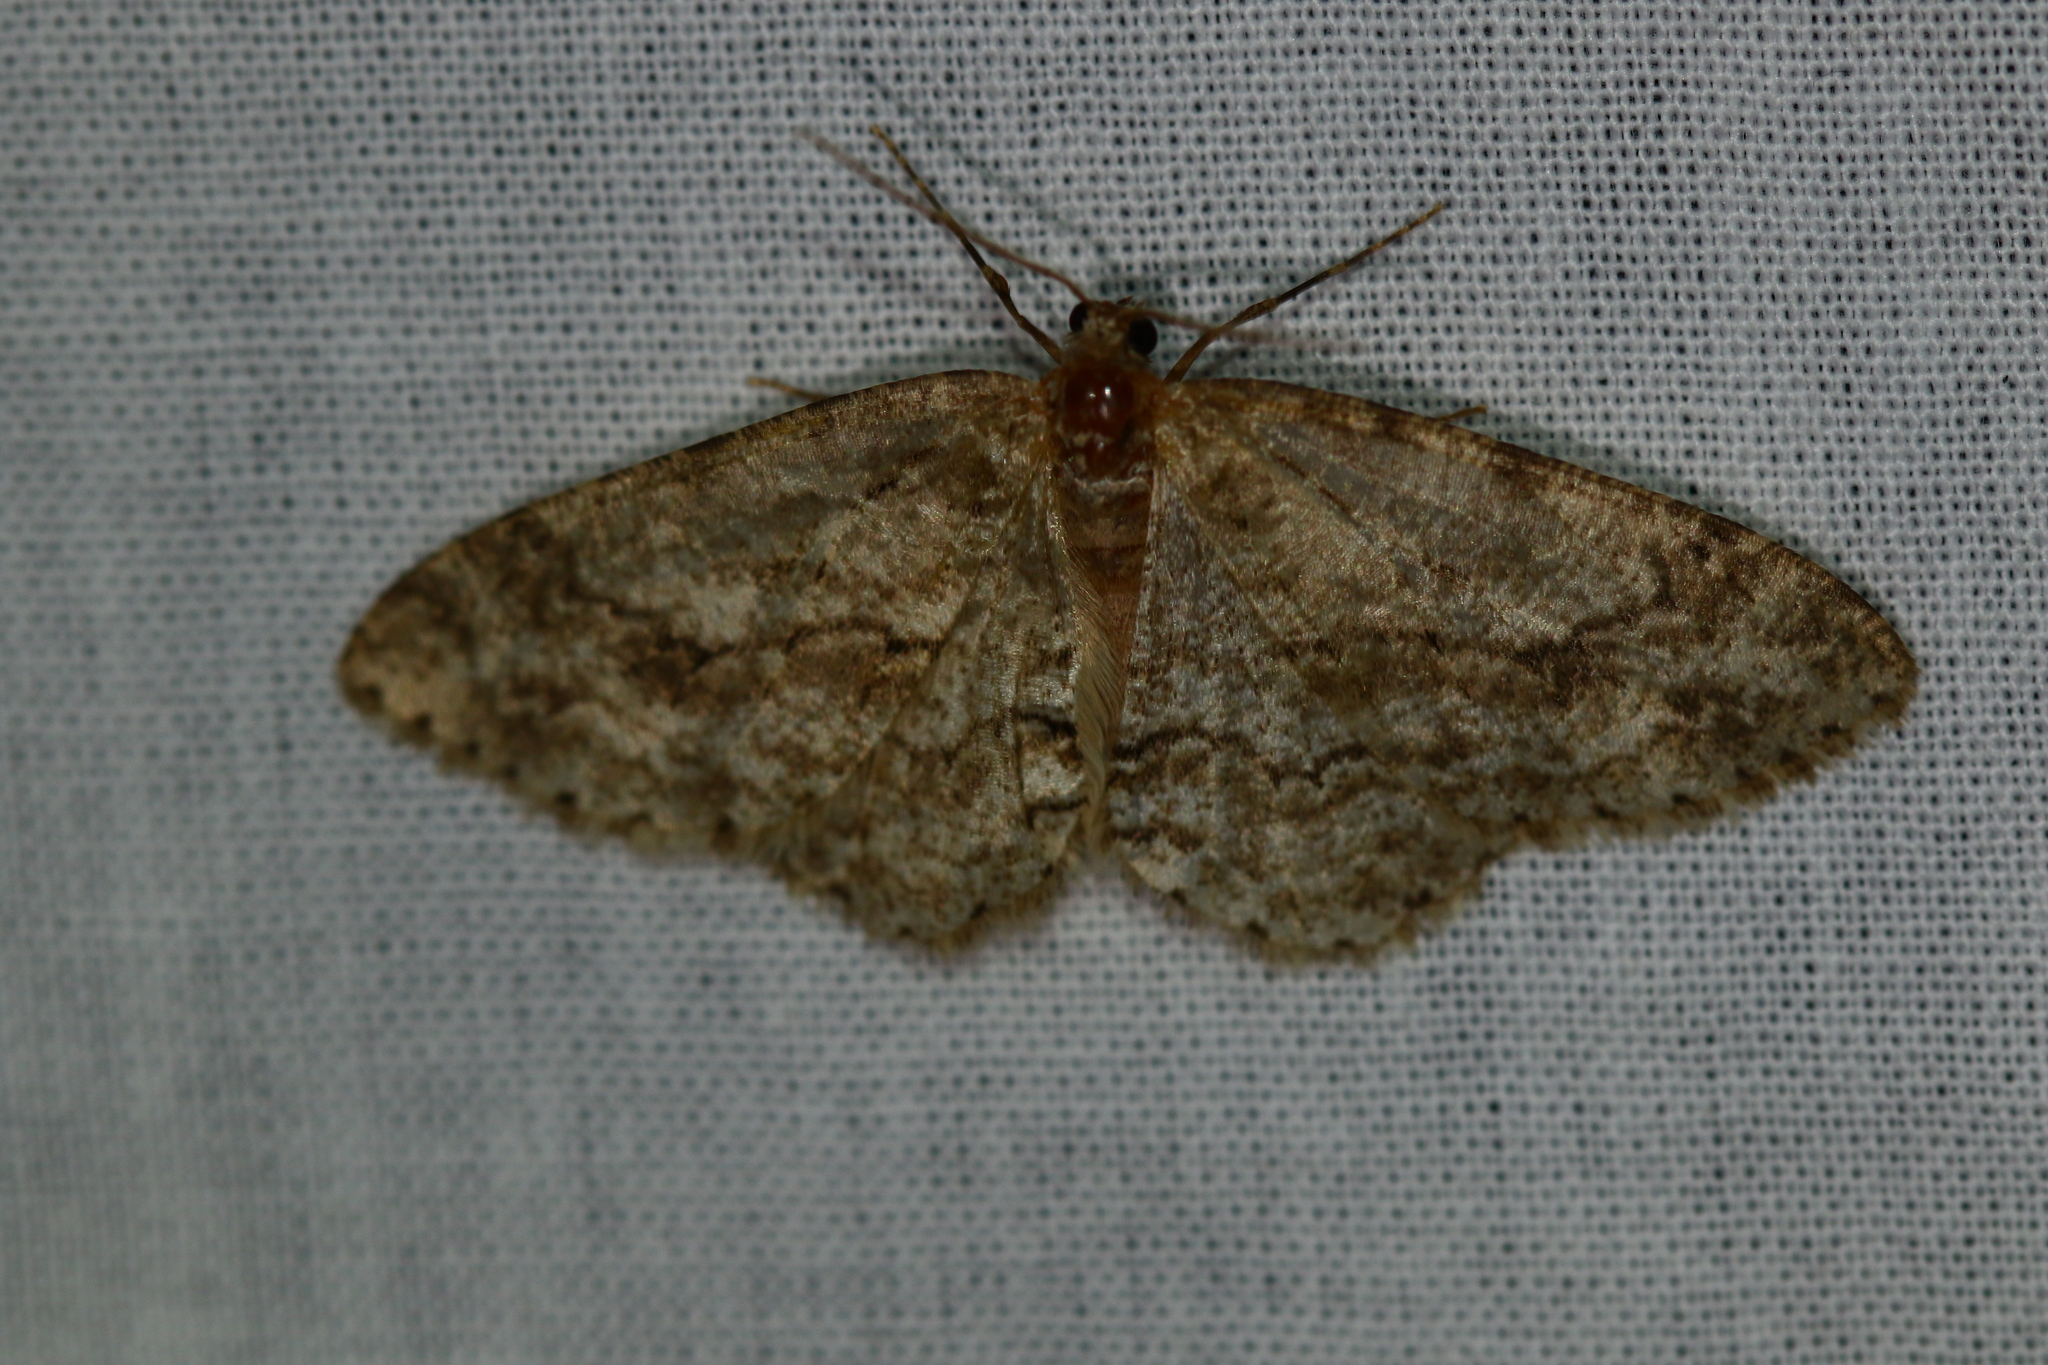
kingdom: Animalia
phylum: Arthropoda
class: Insecta
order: Lepidoptera
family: Geometridae
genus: Ectropis
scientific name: Ectropis crepuscularia
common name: Engrailed
